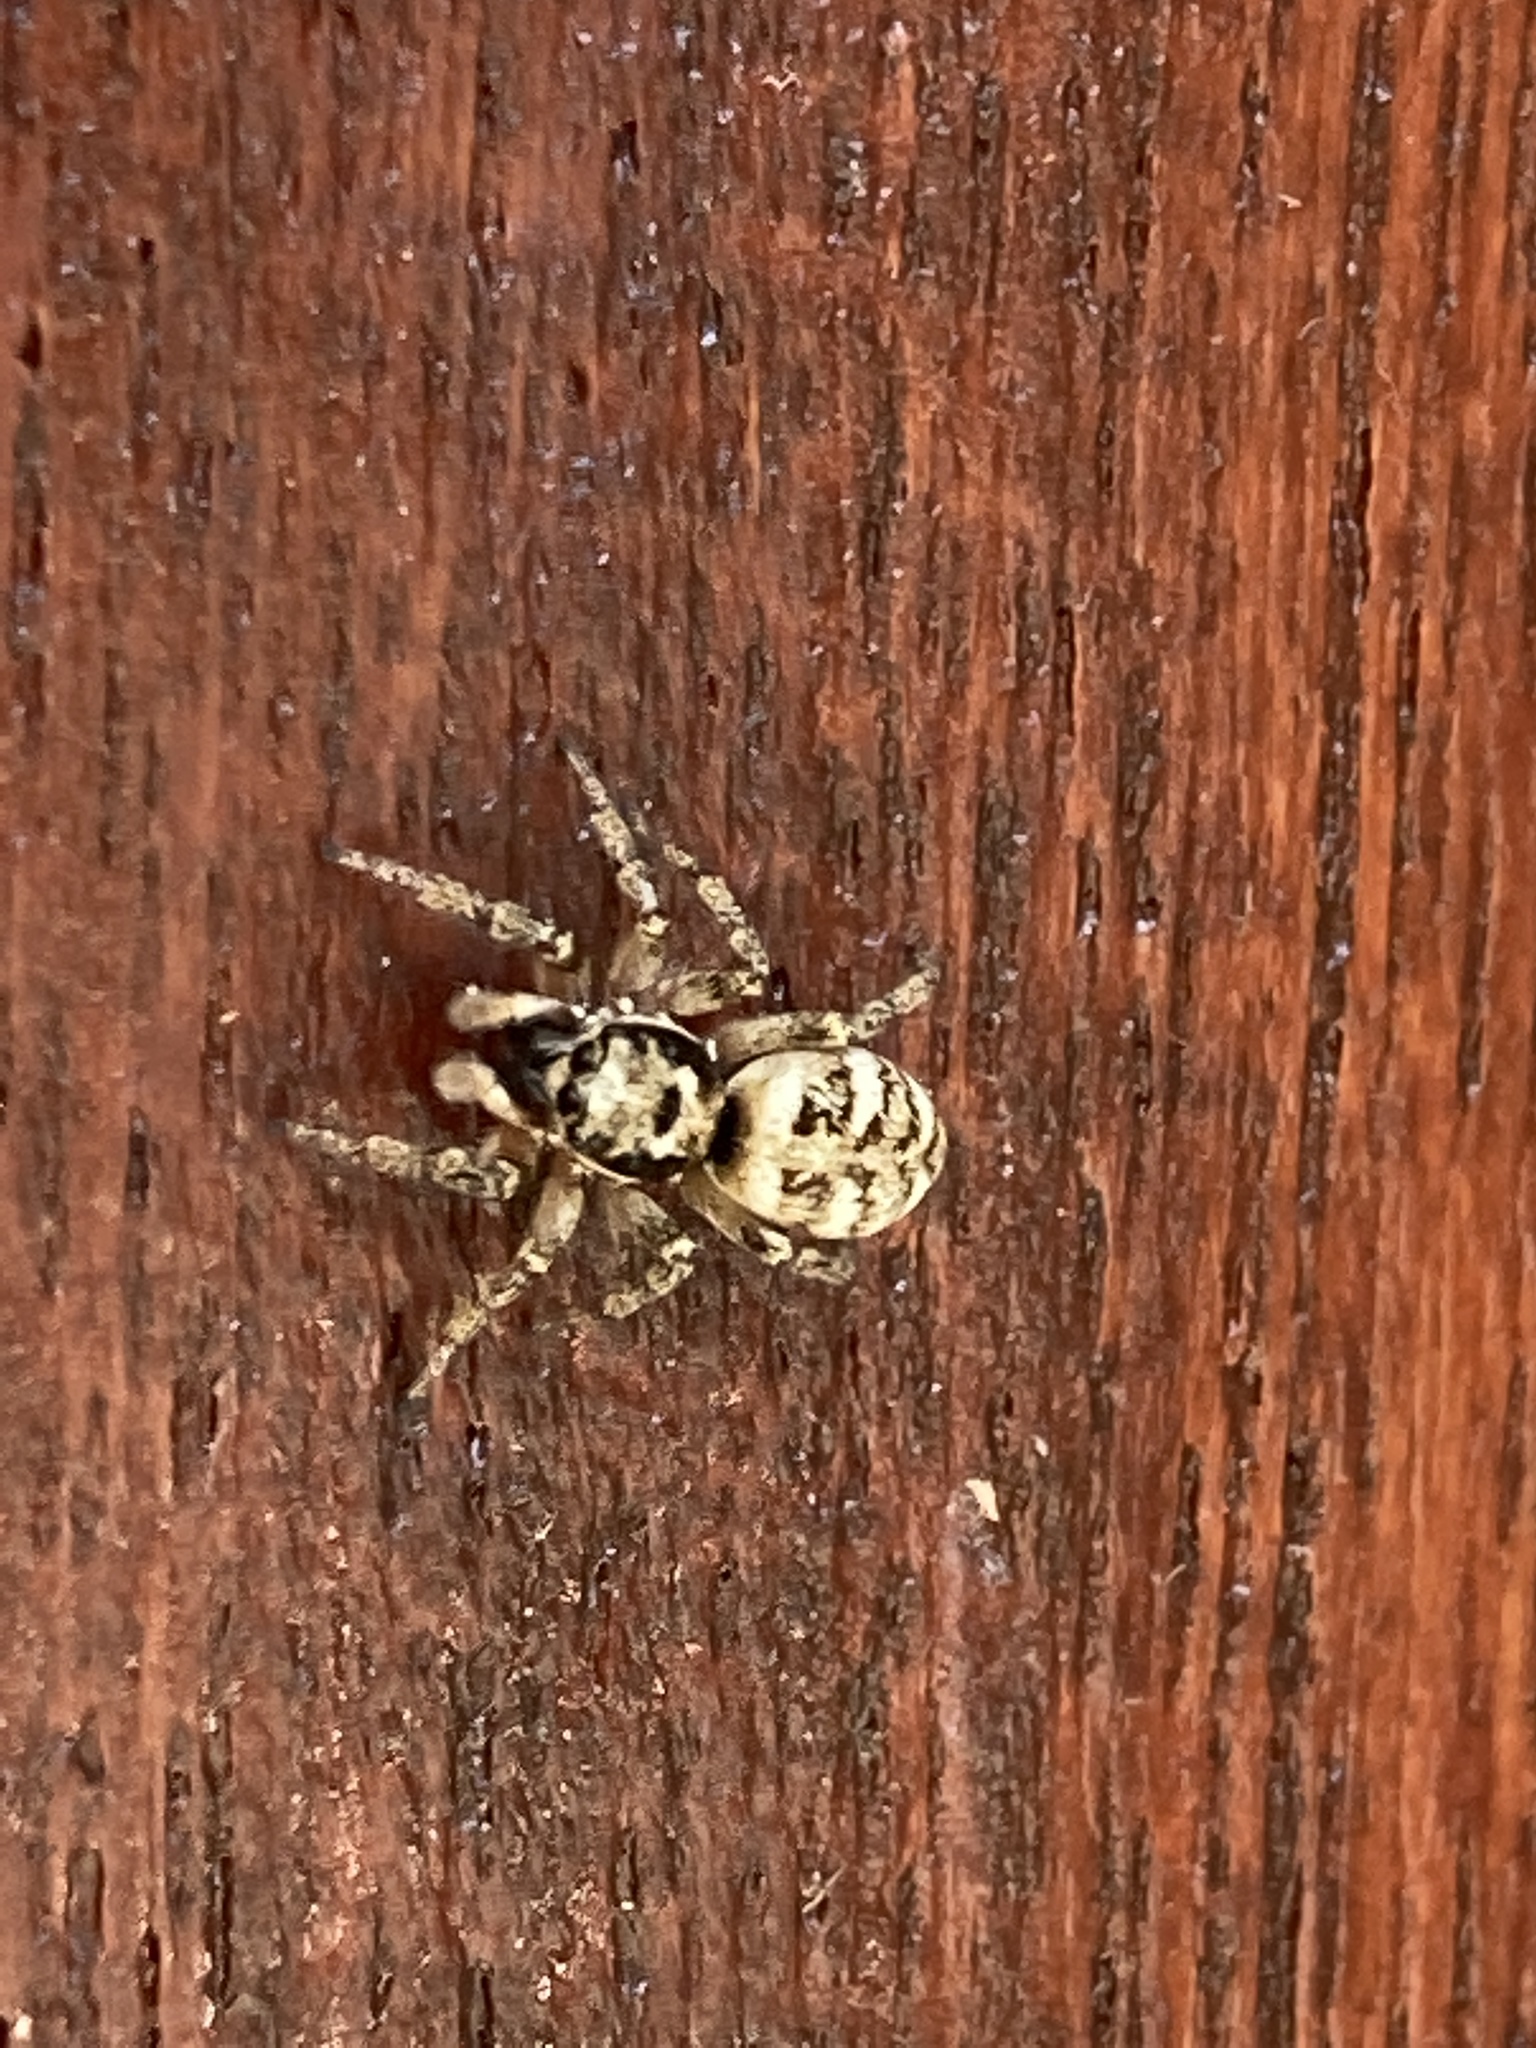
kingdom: Animalia
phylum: Arthropoda
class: Arachnida
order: Araneae
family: Salticidae
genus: Salticus
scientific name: Salticus scenicus
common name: Zebra jumper
